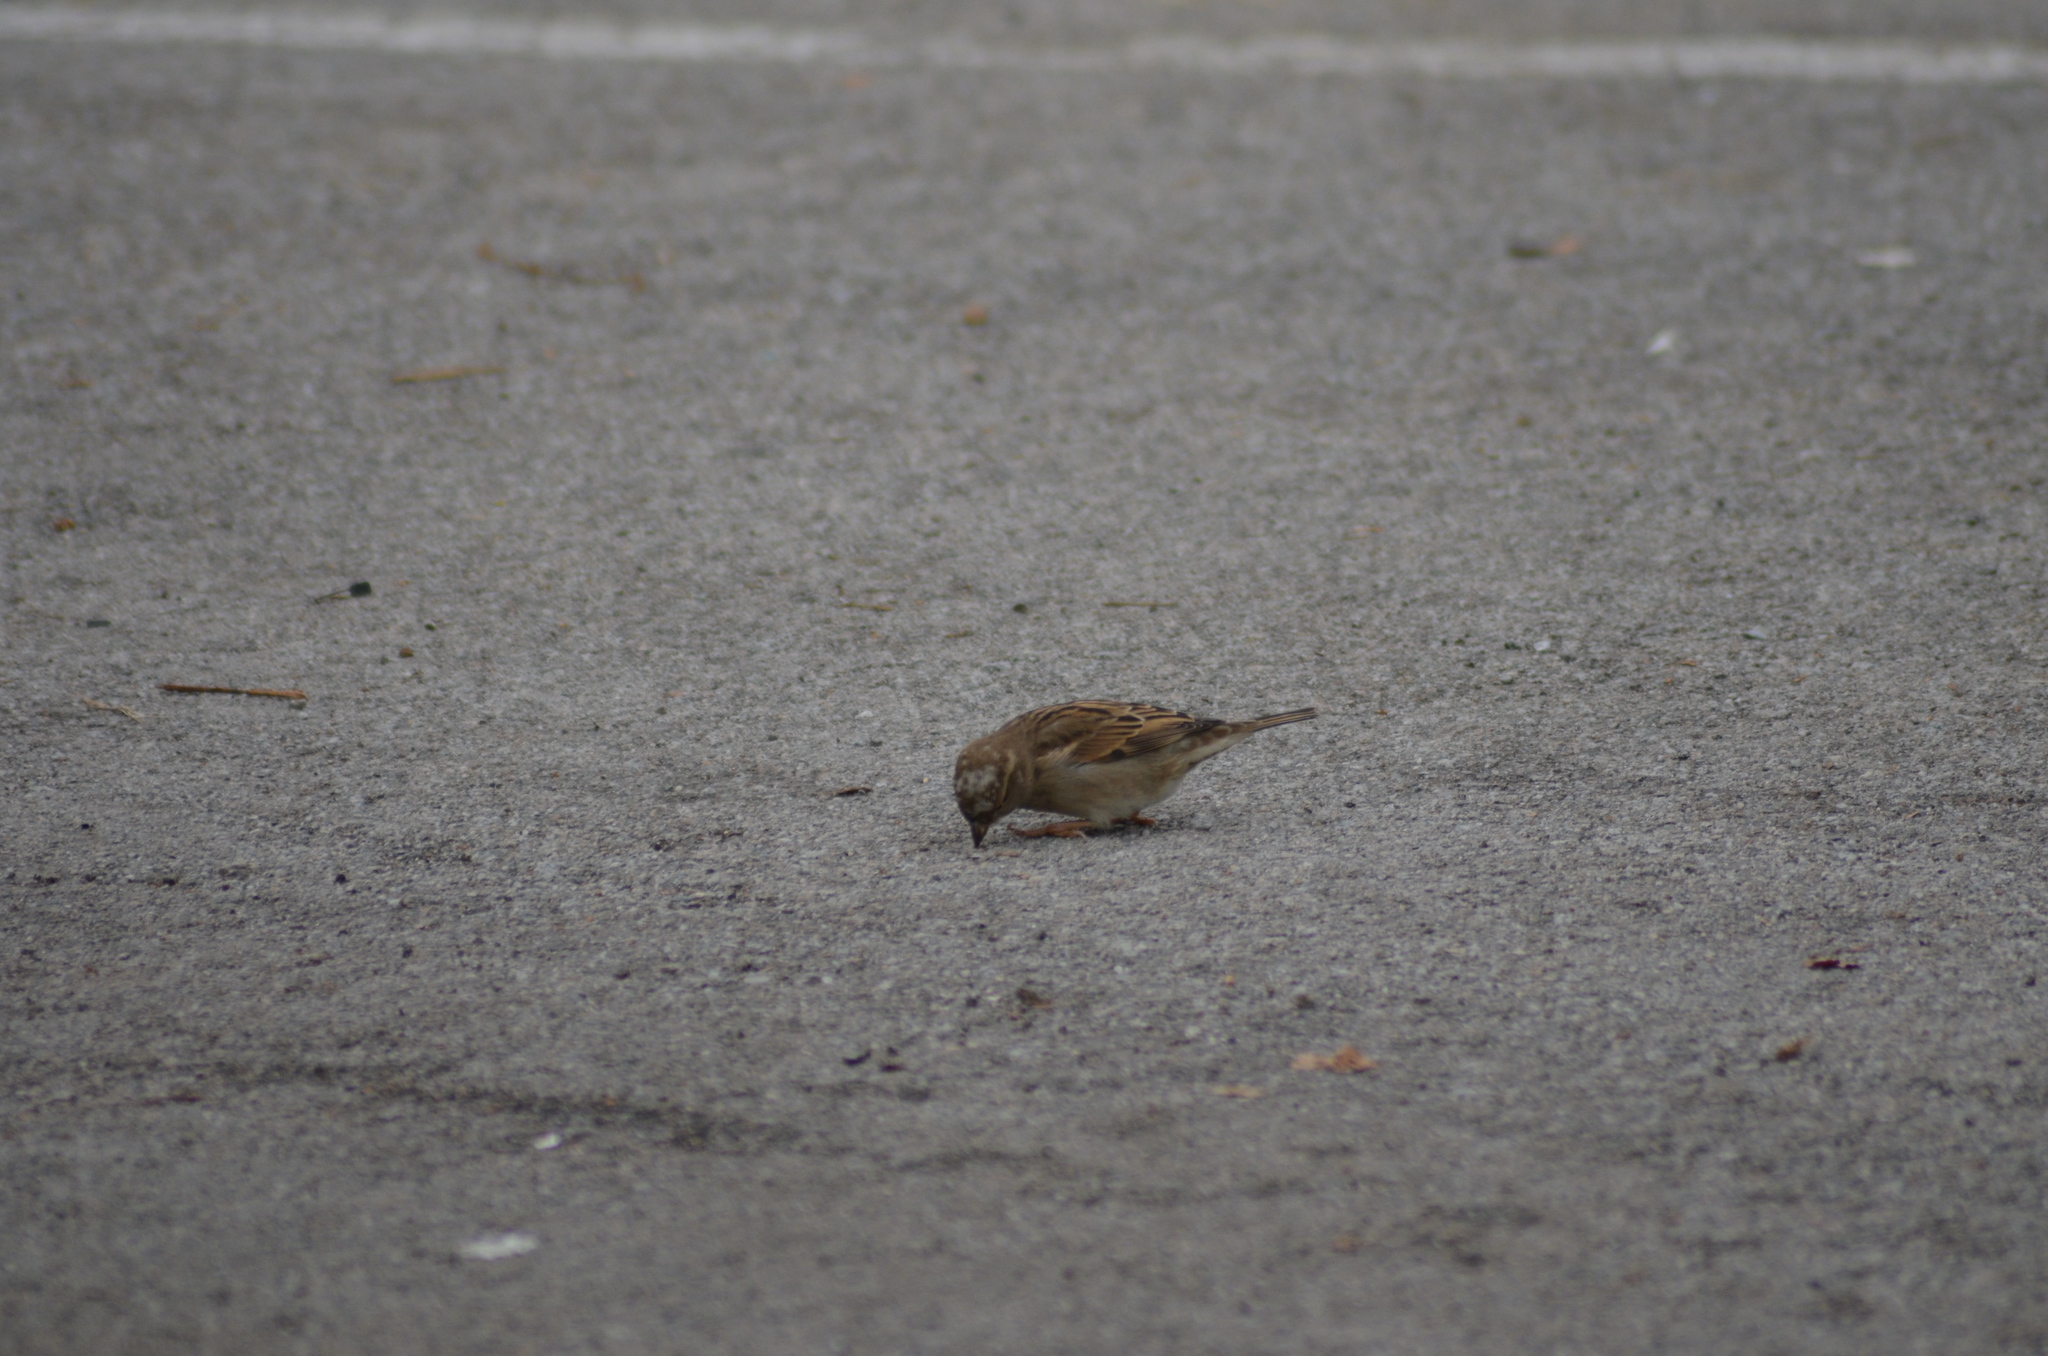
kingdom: Animalia
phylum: Chordata
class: Aves
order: Passeriformes
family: Passeridae
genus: Passer
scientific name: Passer domesticus
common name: House sparrow
